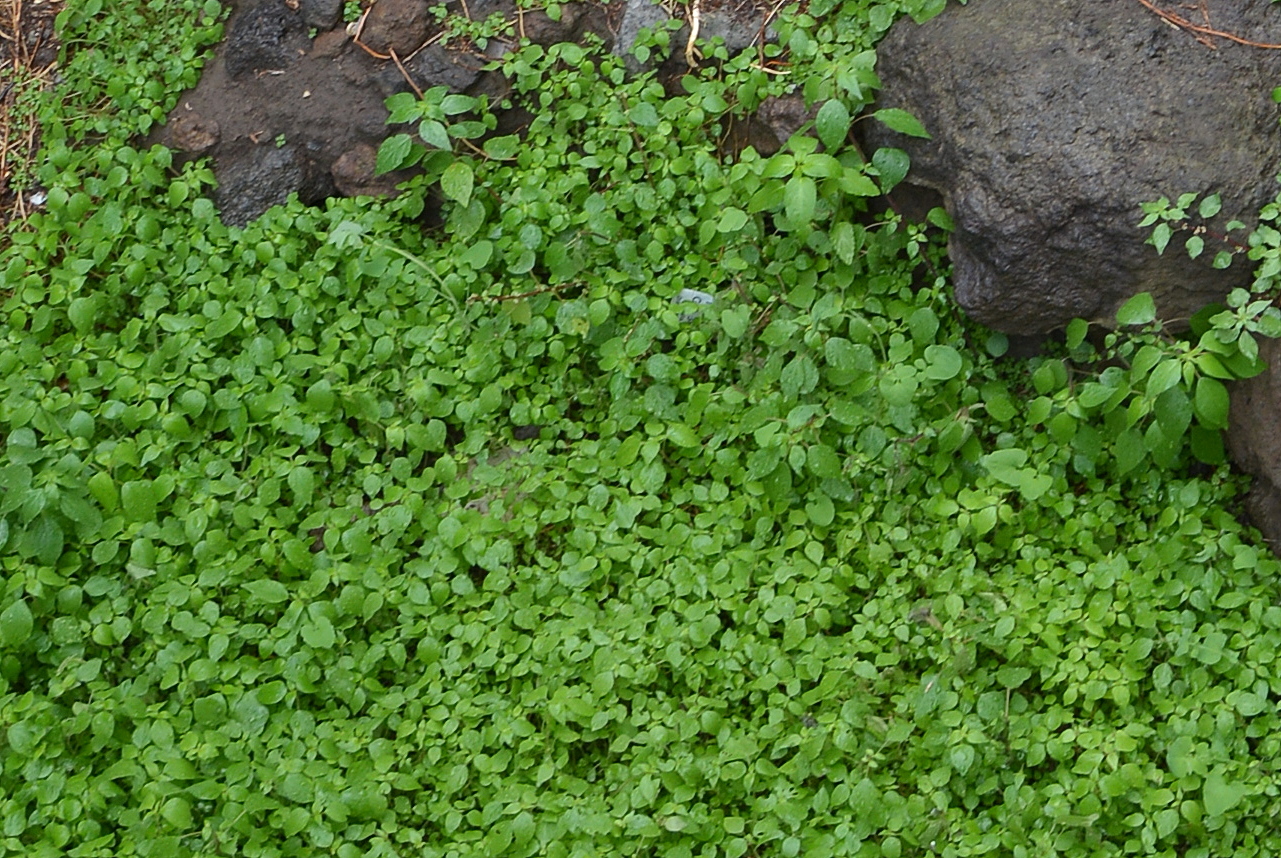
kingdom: Plantae
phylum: Tracheophyta
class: Magnoliopsida
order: Rosales
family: Urticaceae
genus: Parietaria
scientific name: Parietaria judaica
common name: Pellitory-of-the-wall
